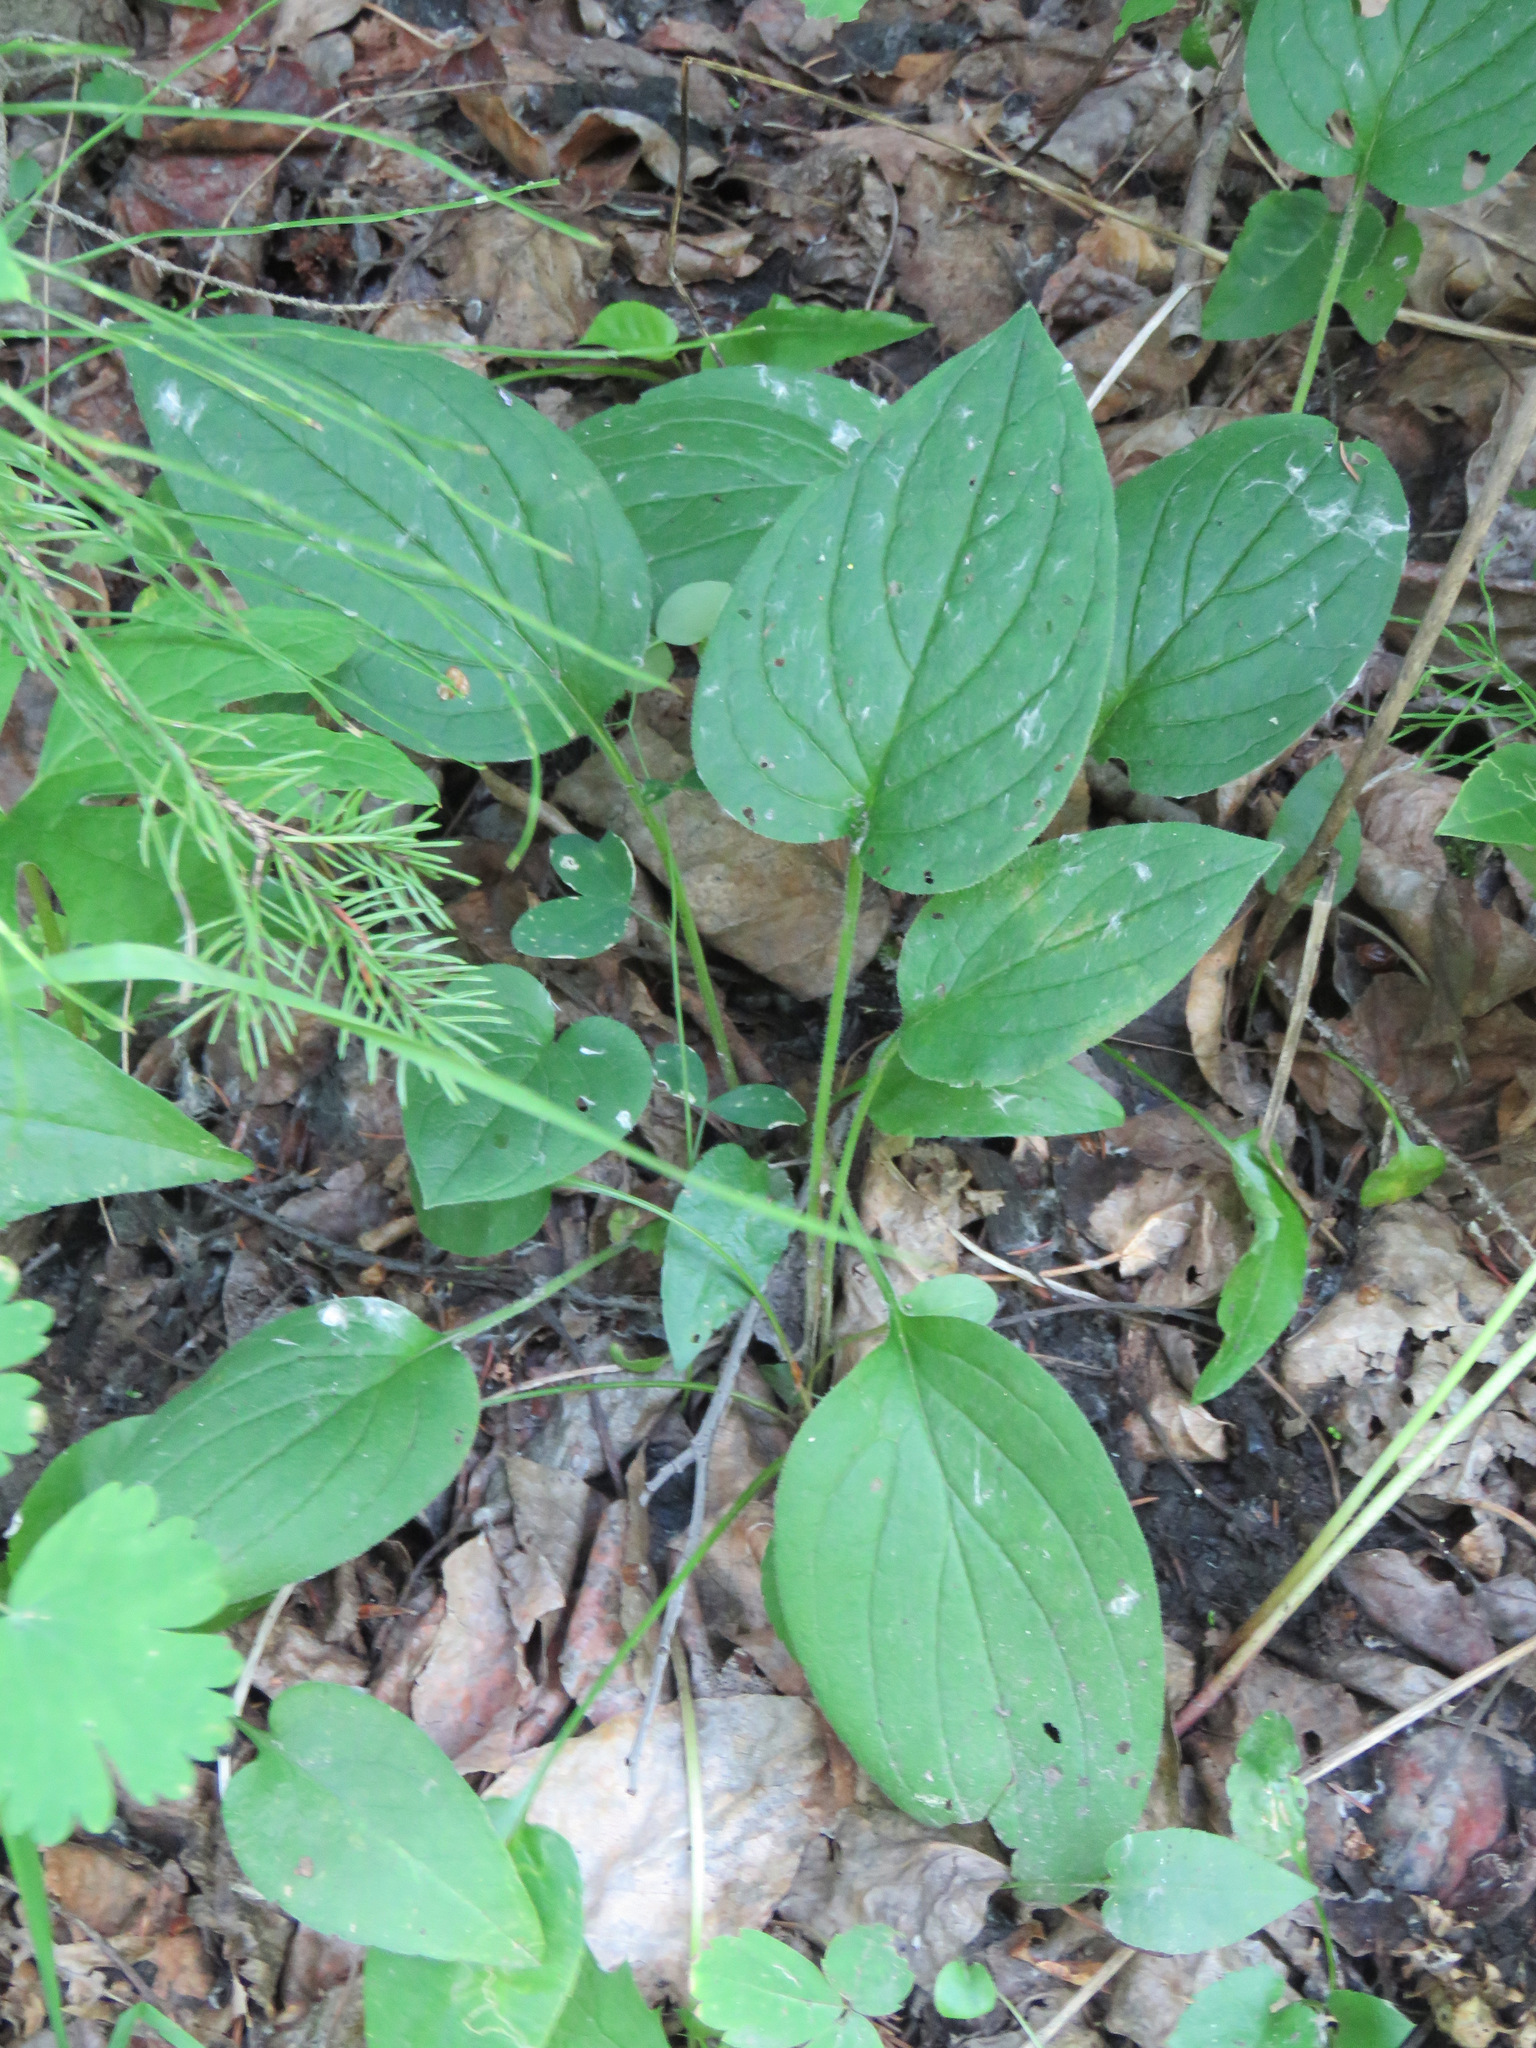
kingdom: Plantae
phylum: Tracheophyta
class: Magnoliopsida
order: Boraginales
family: Boraginaceae
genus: Mertensia
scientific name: Mertensia paniculata
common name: Panicled bluebells
